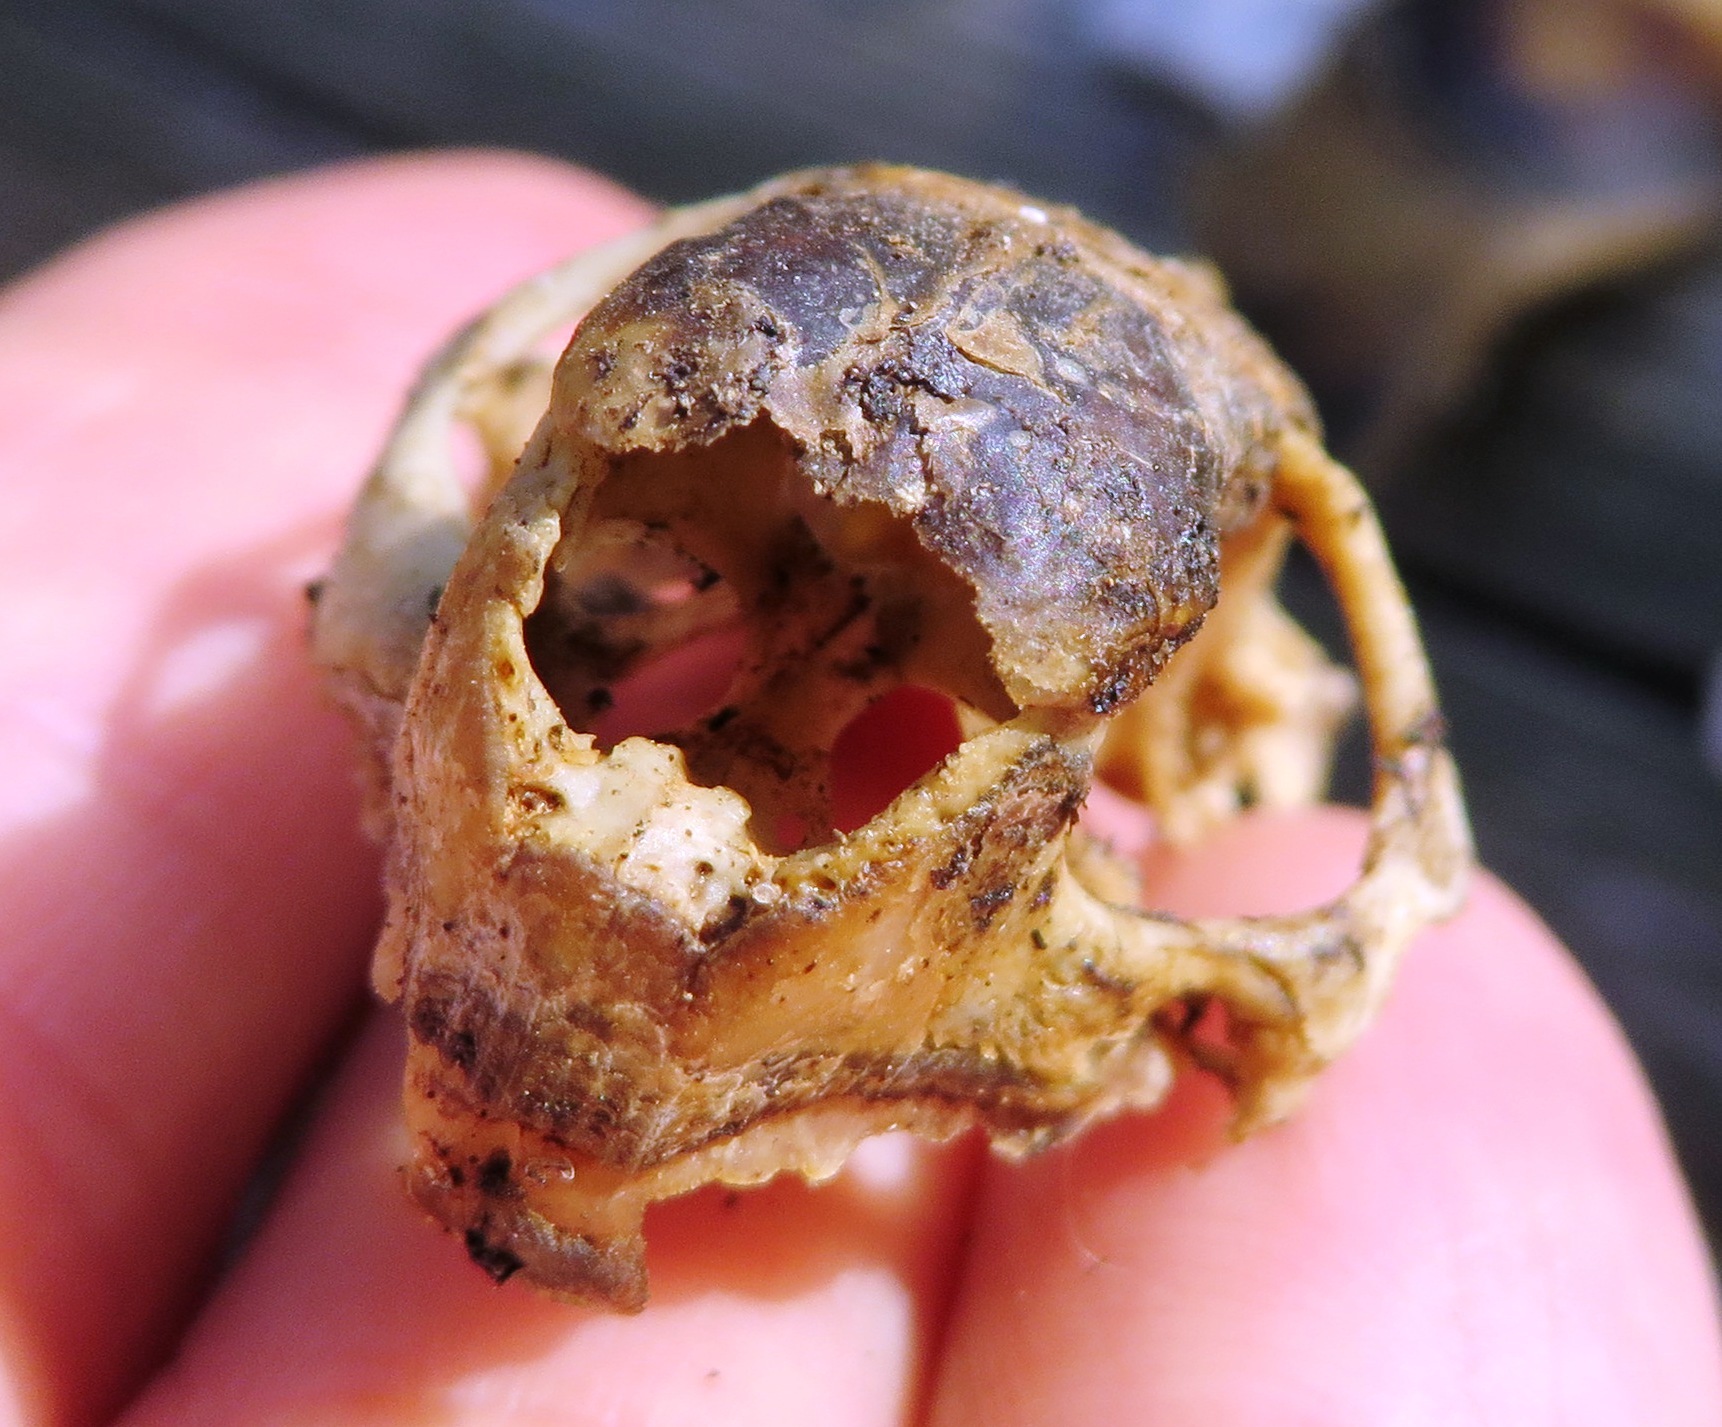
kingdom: Animalia
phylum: Chordata
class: Testudines
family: Testudinidae
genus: Chersina
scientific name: Chersina angulata
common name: South african bowsprit tortoise
